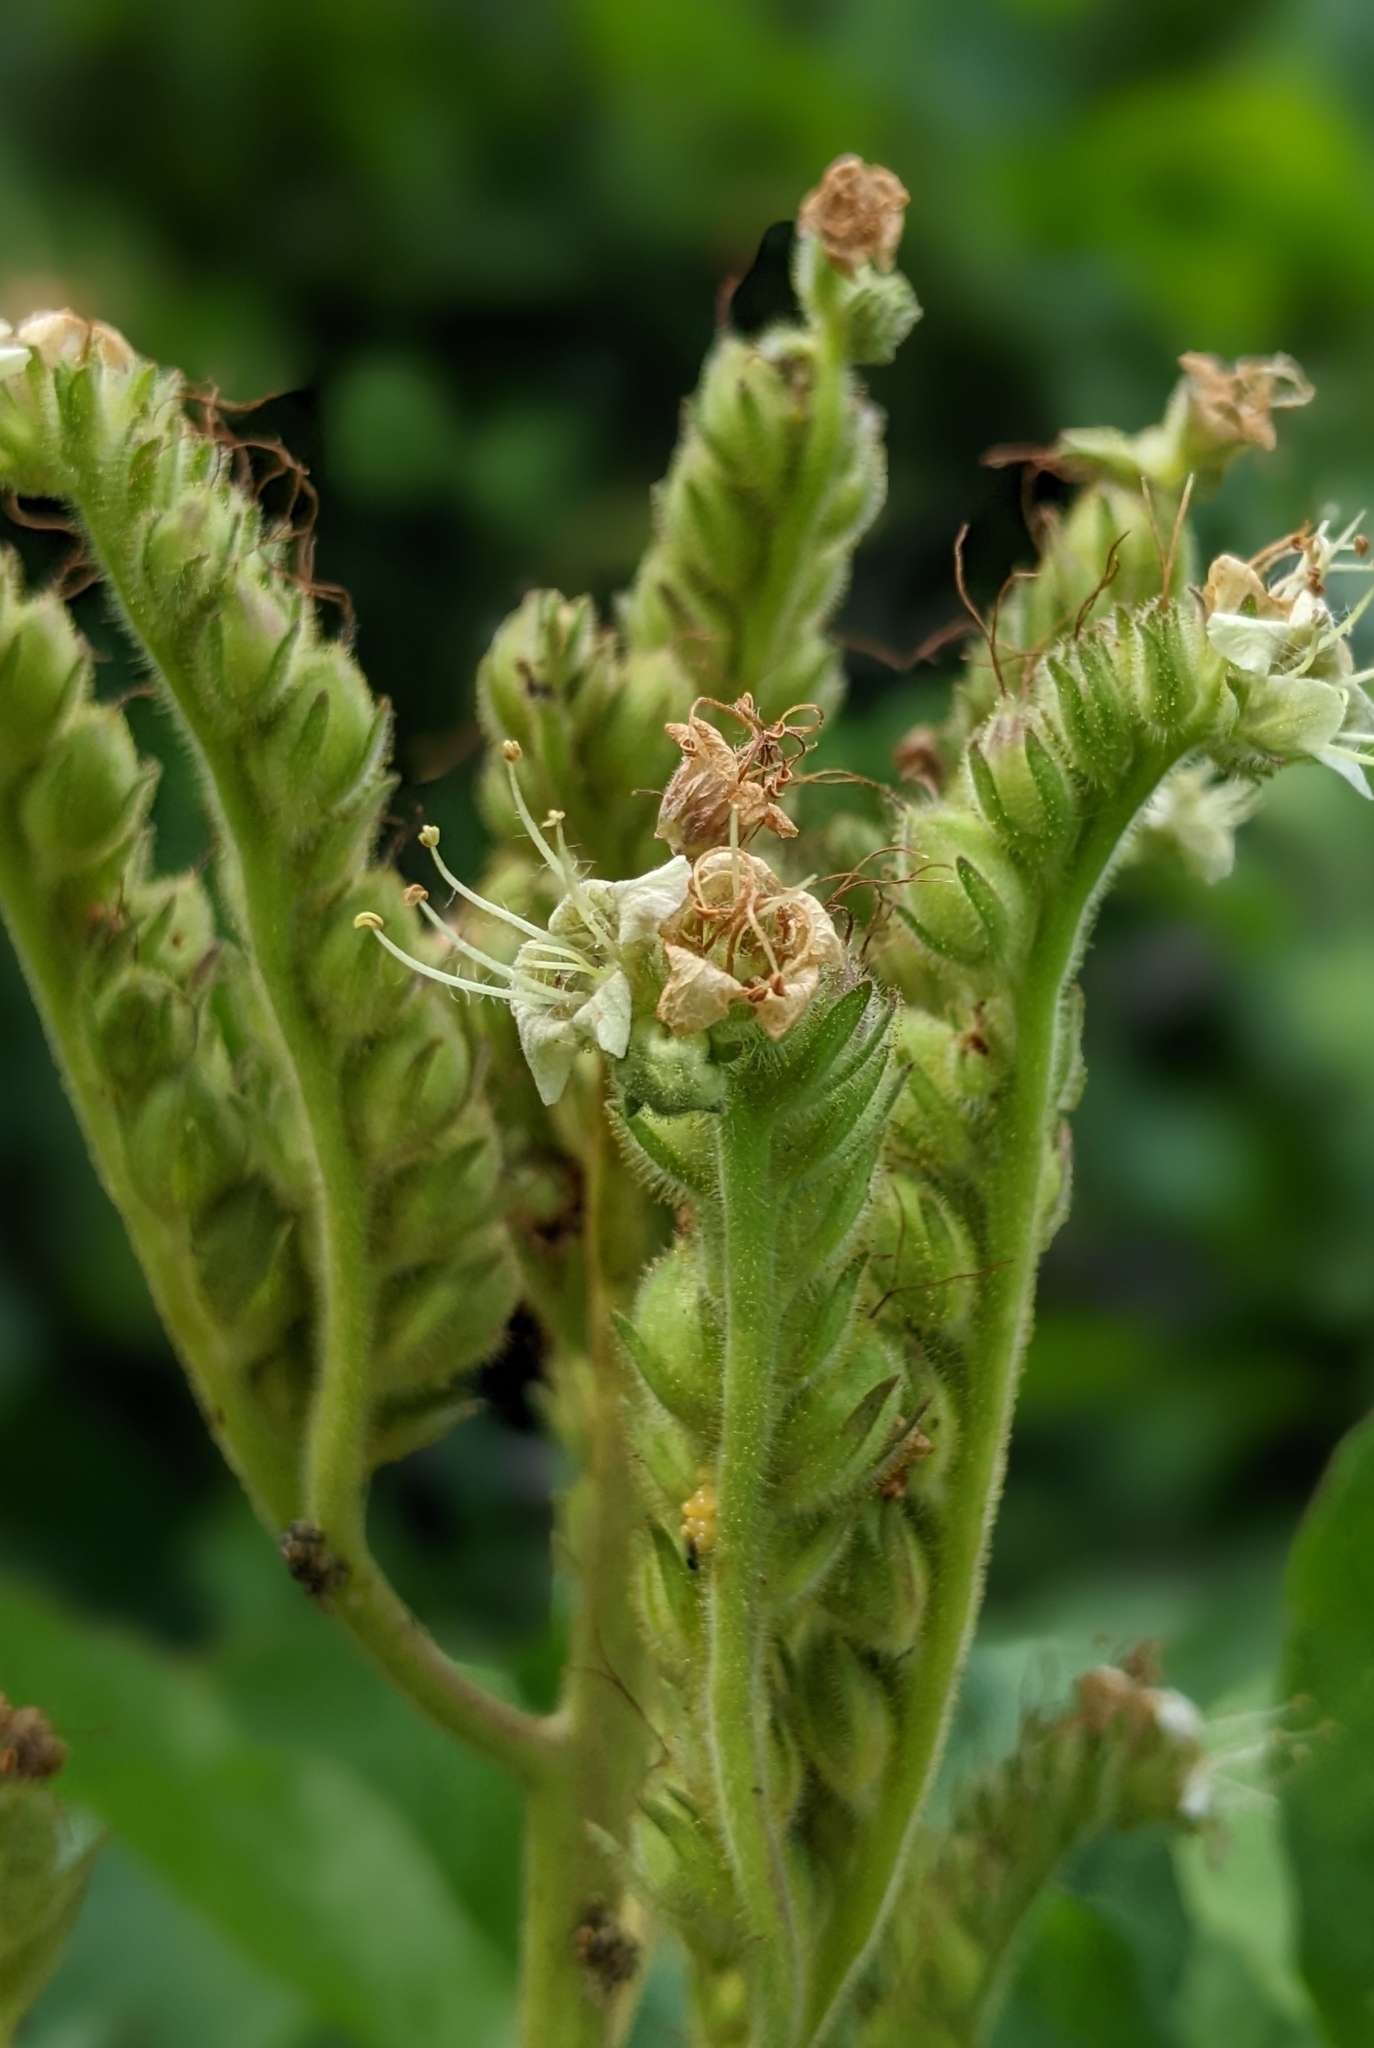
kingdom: Plantae
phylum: Tracheophyta
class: Magnoliopsida
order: Boraginales
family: Hydrophyllaceae
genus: Phacelia
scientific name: Phacelia procera
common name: Tall phacelia
